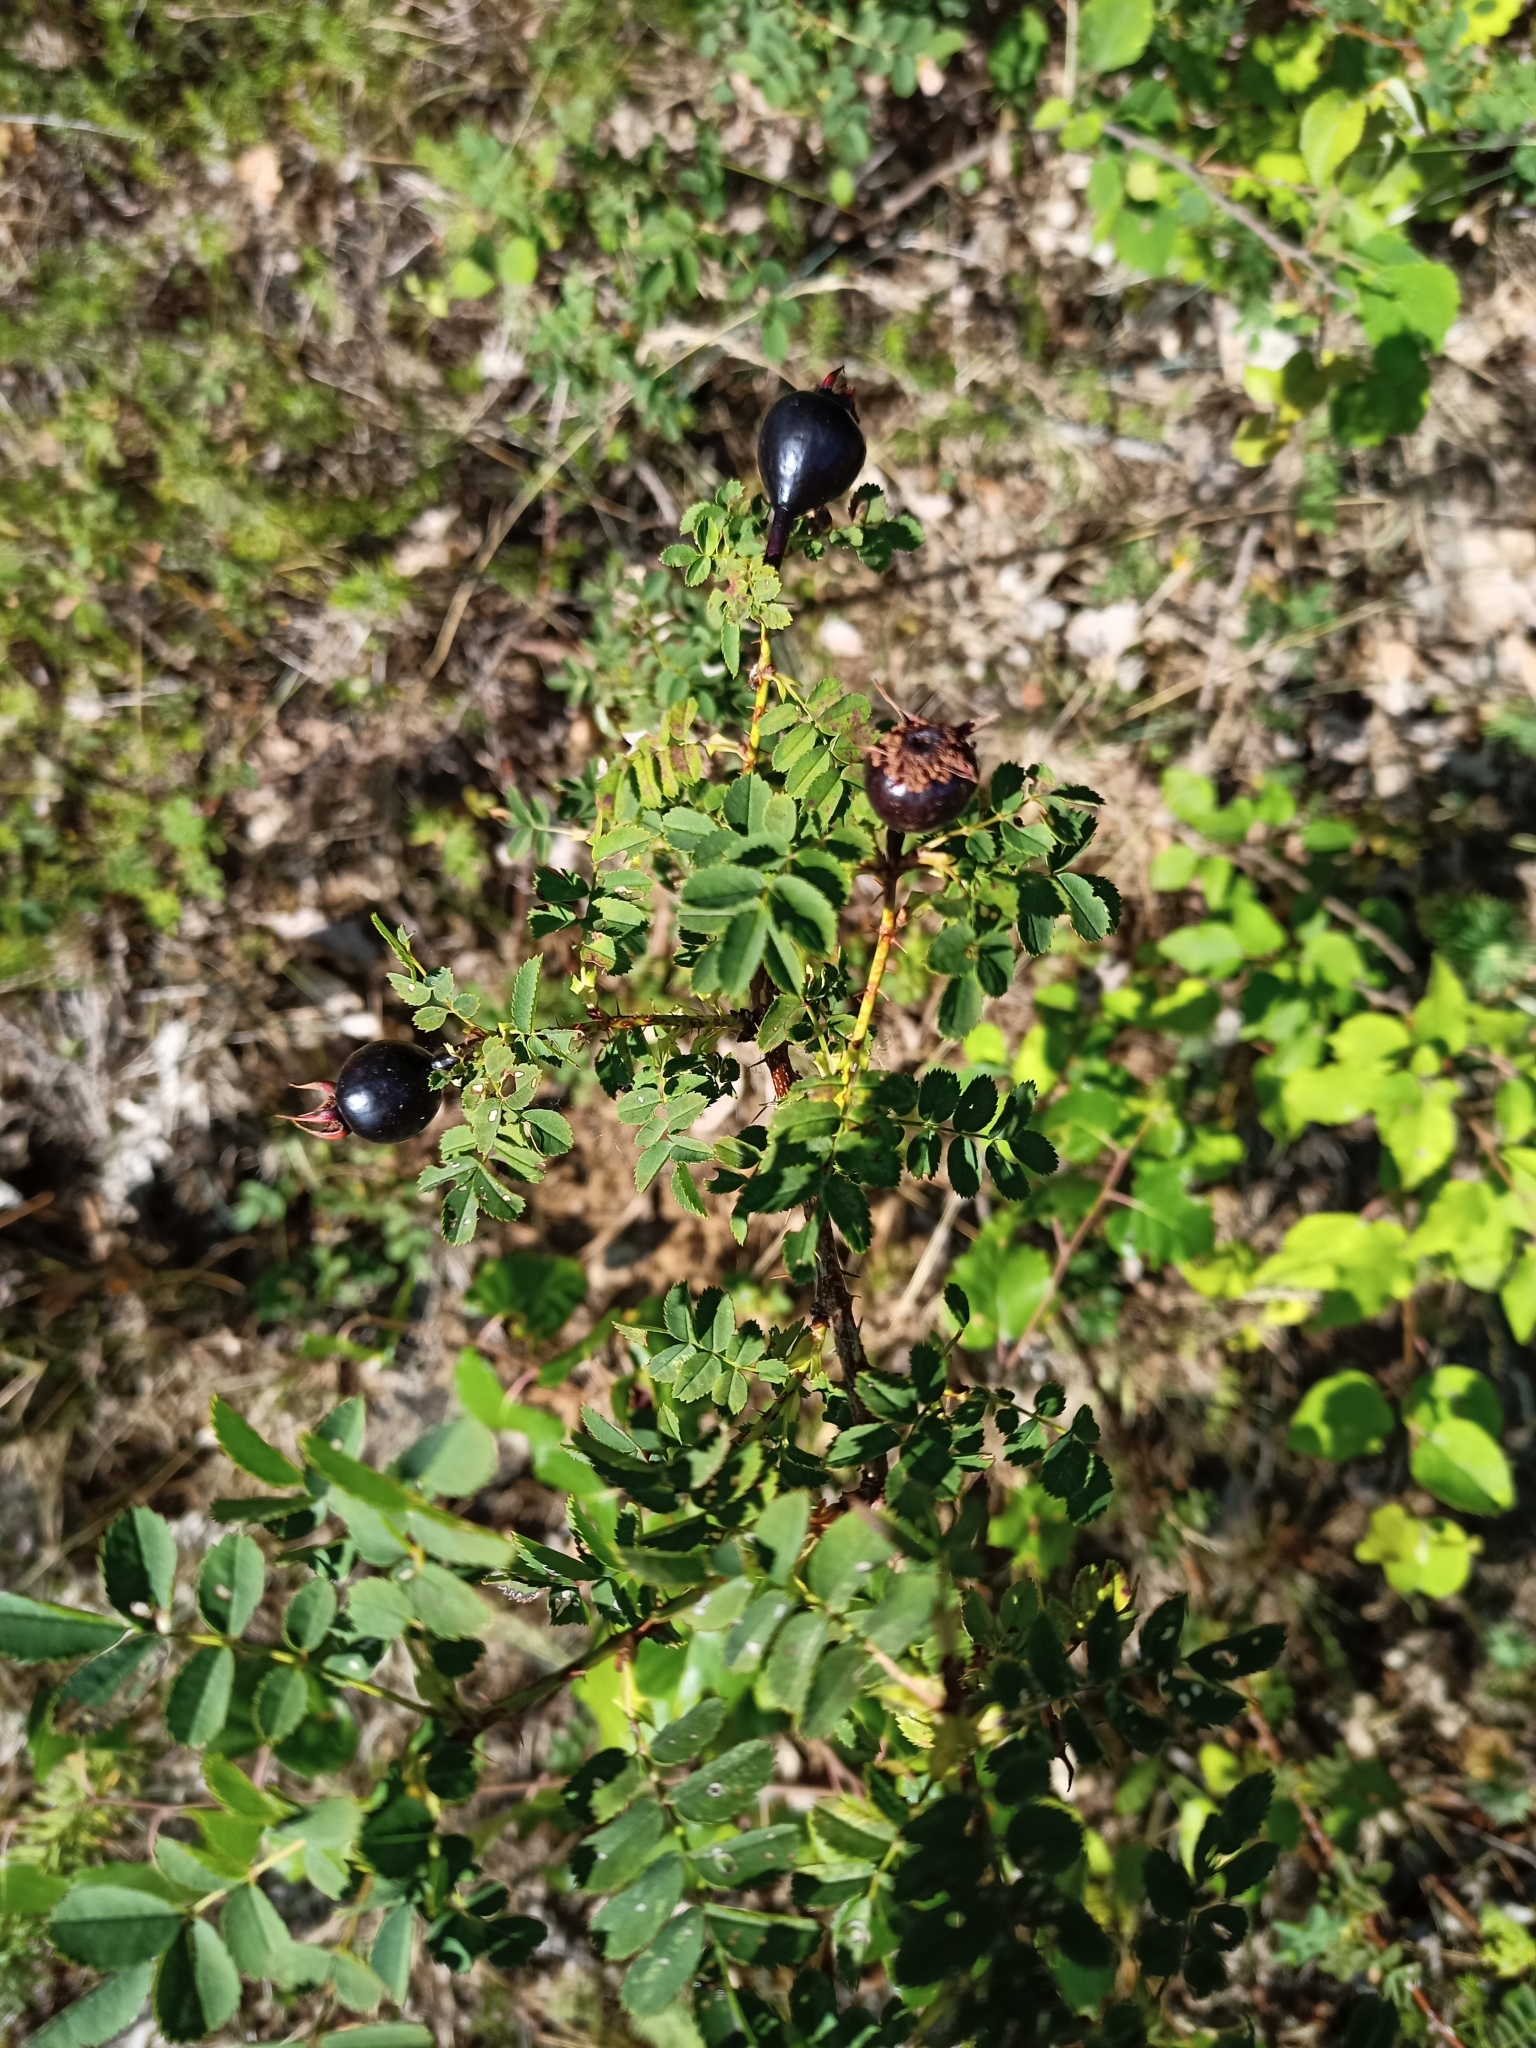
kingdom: Plantae
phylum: Tracheophyta
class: Magnoliopsida
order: Rosales
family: Rosaceae
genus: Rosa
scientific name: Rosa spinosissima
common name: Burnet rose
